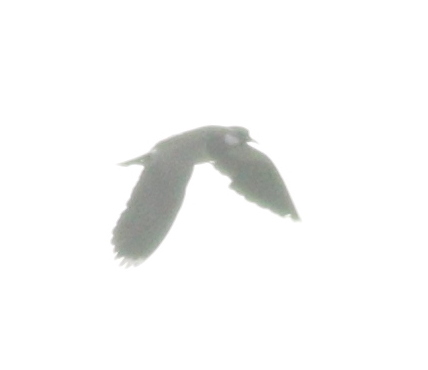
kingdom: Animalia
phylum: Chordata
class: Aves
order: Charadriiformes
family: Charadriidae
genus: Vanellus
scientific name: Vanellus vanellus
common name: Northern lapwing
